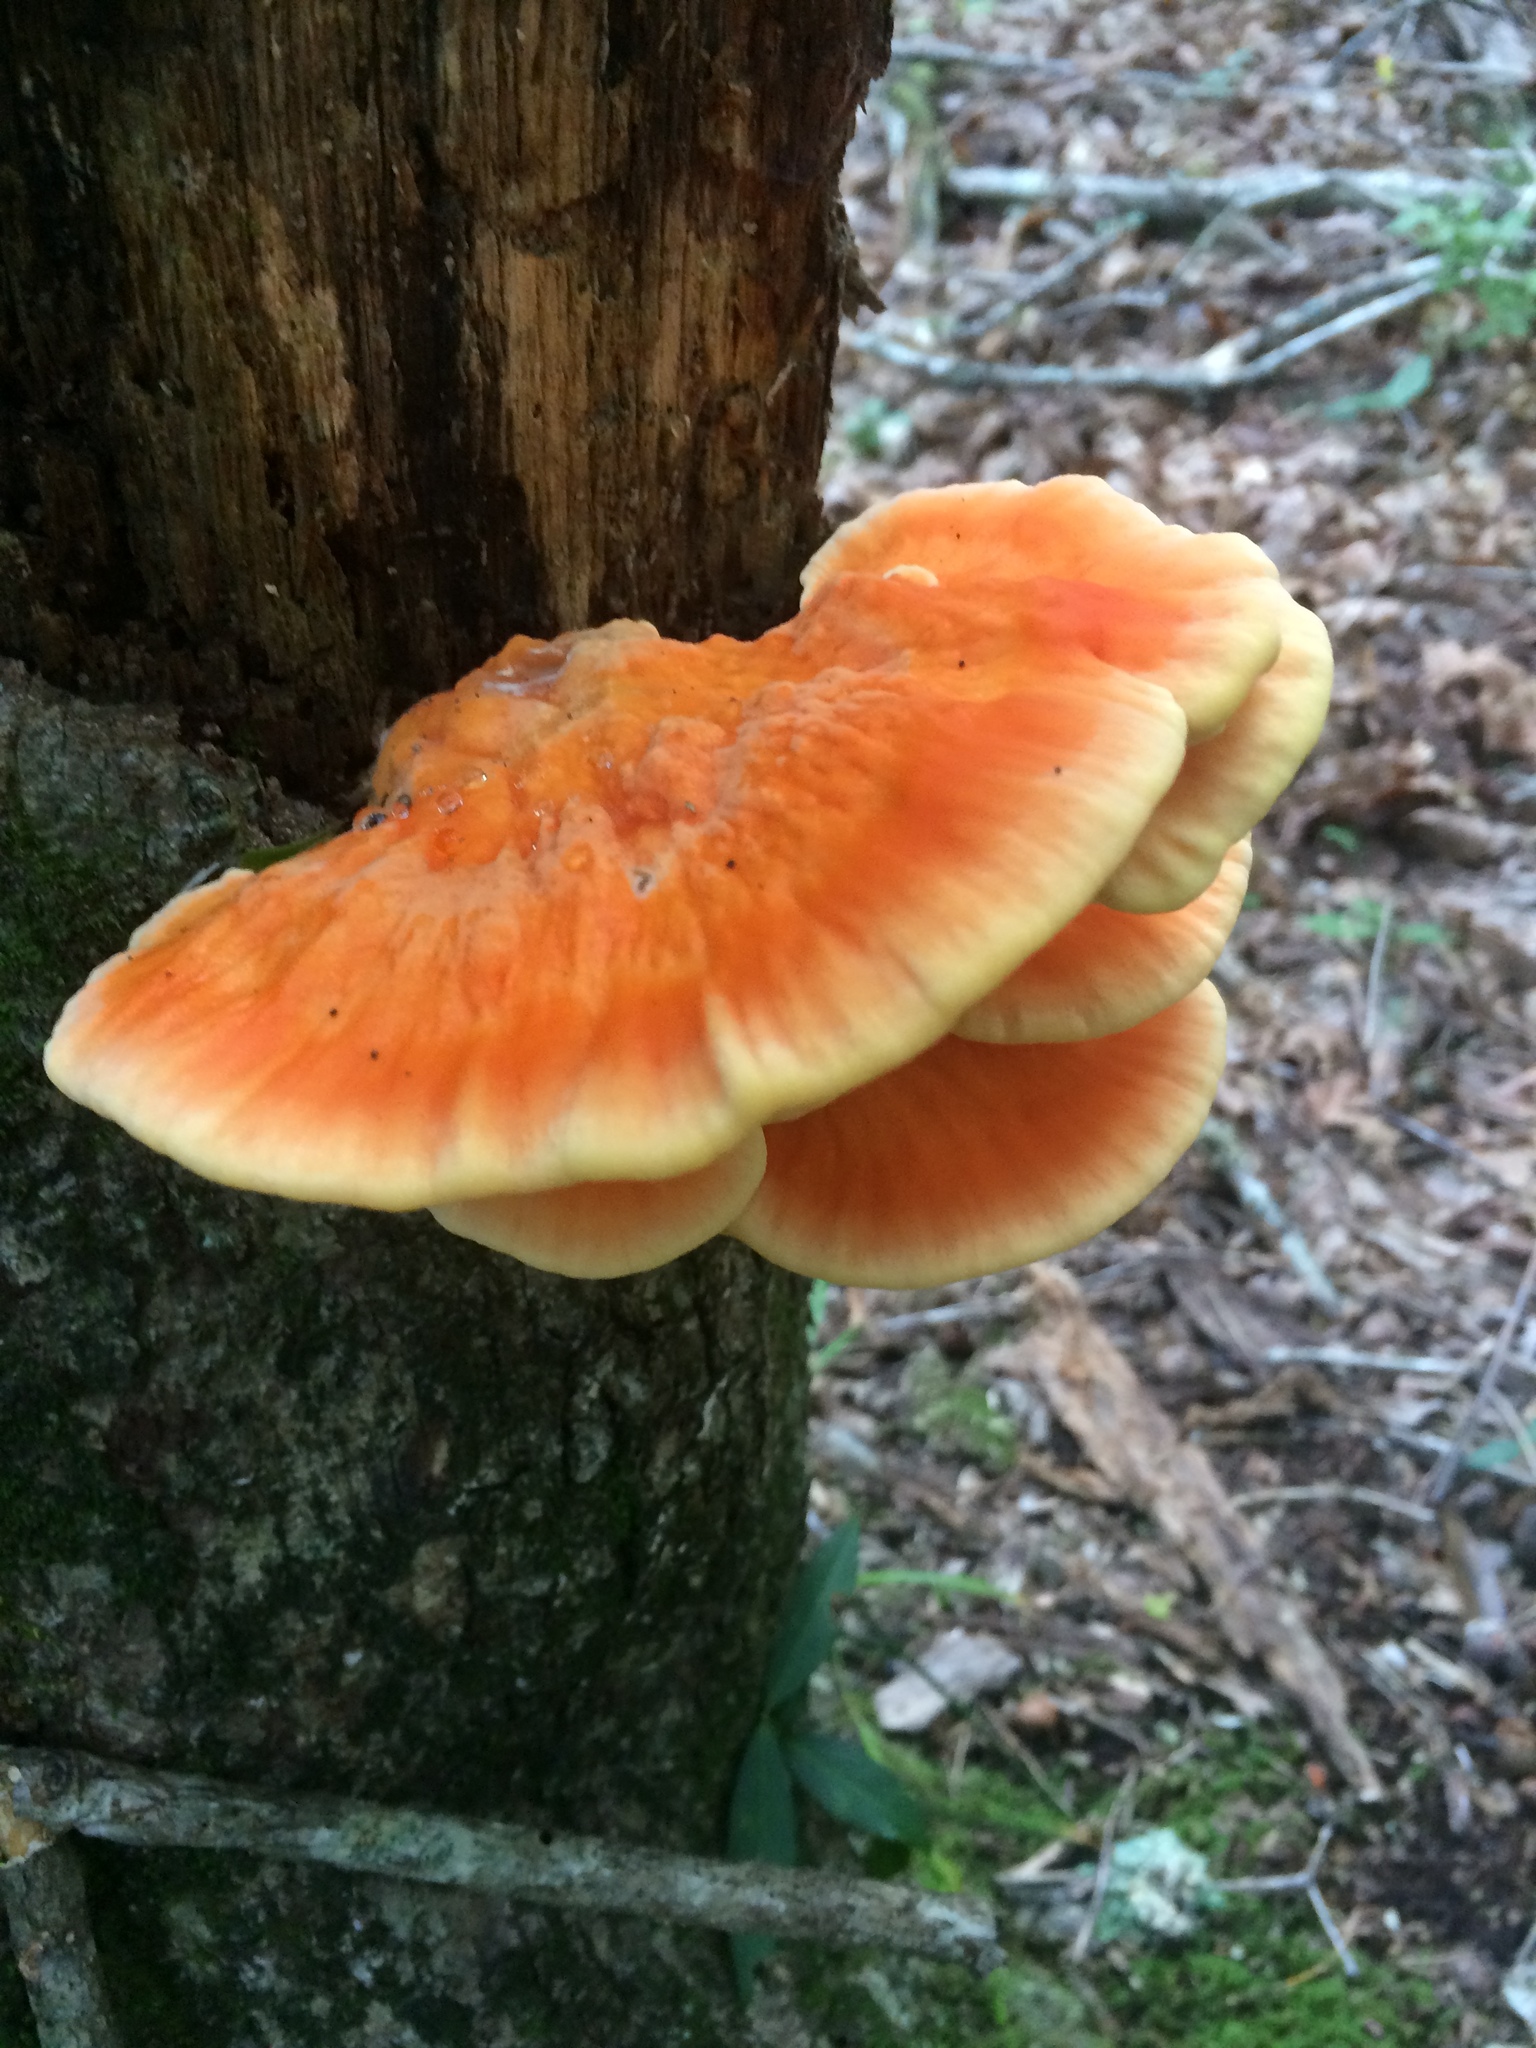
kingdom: Fungi
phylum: Basidiomycota
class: Agaricomycetes
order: Polyporales
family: Laetiporaceae
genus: Laetiporus
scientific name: Laetiporus sulphureus
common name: Chicken of the woods
